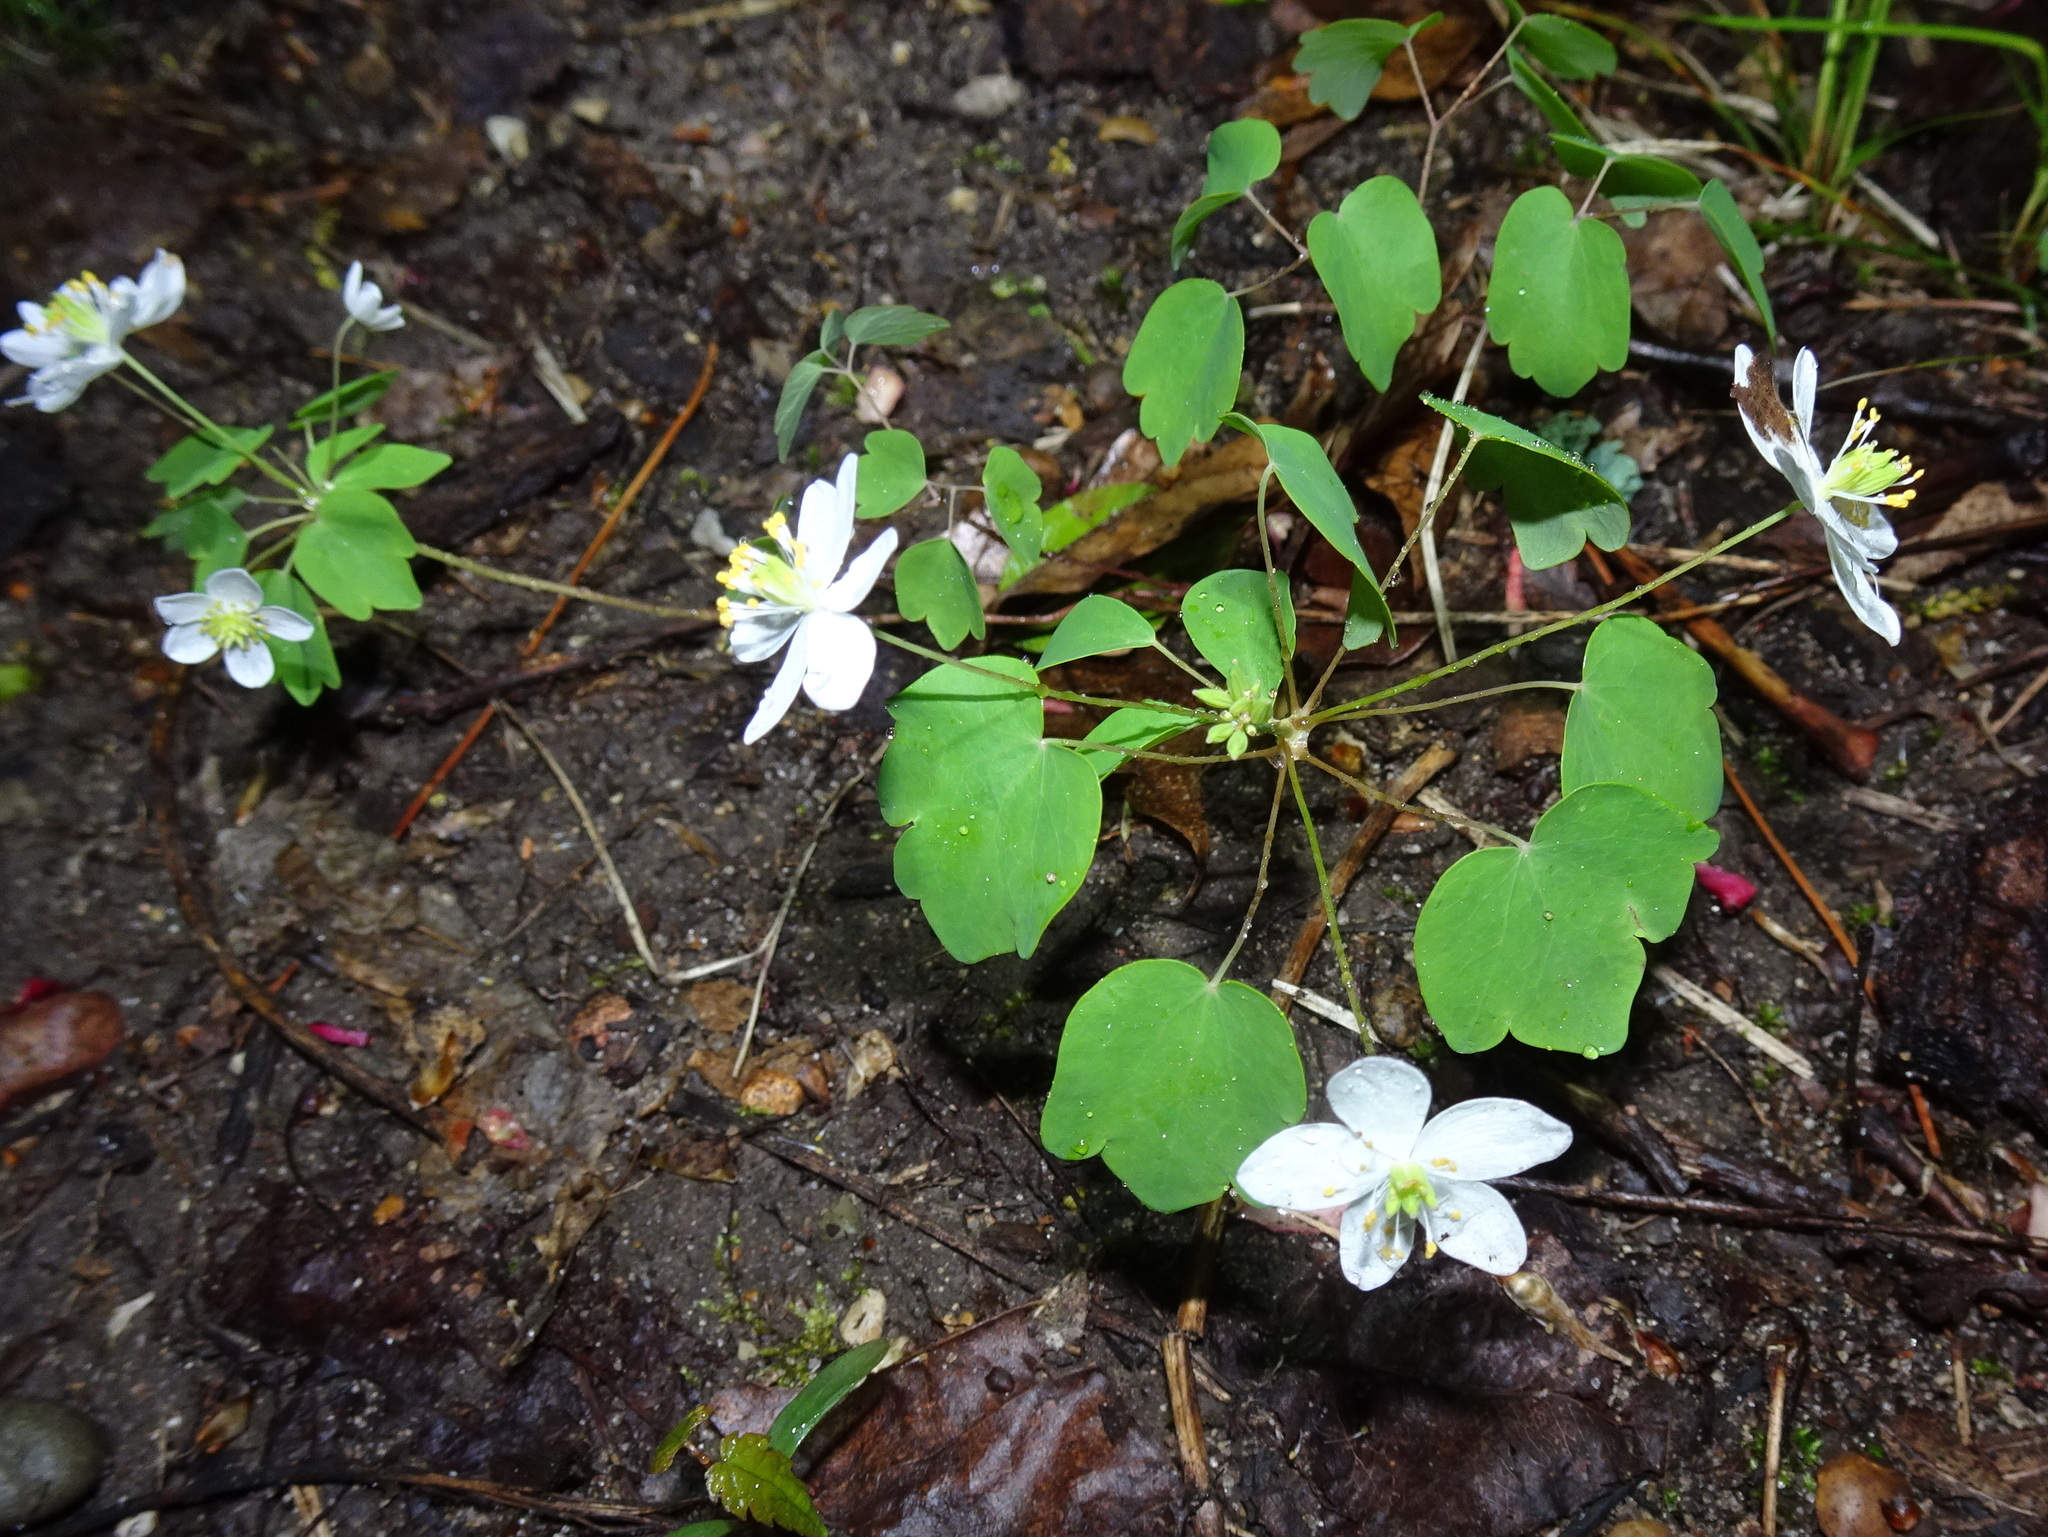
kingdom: Plantae
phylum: Tracheophyta
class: Magnoliopsida
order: Ranunculales
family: Ranunculaceae
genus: Thalictrum
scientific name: Thalictrum thalictroides
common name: Rue-anemone
